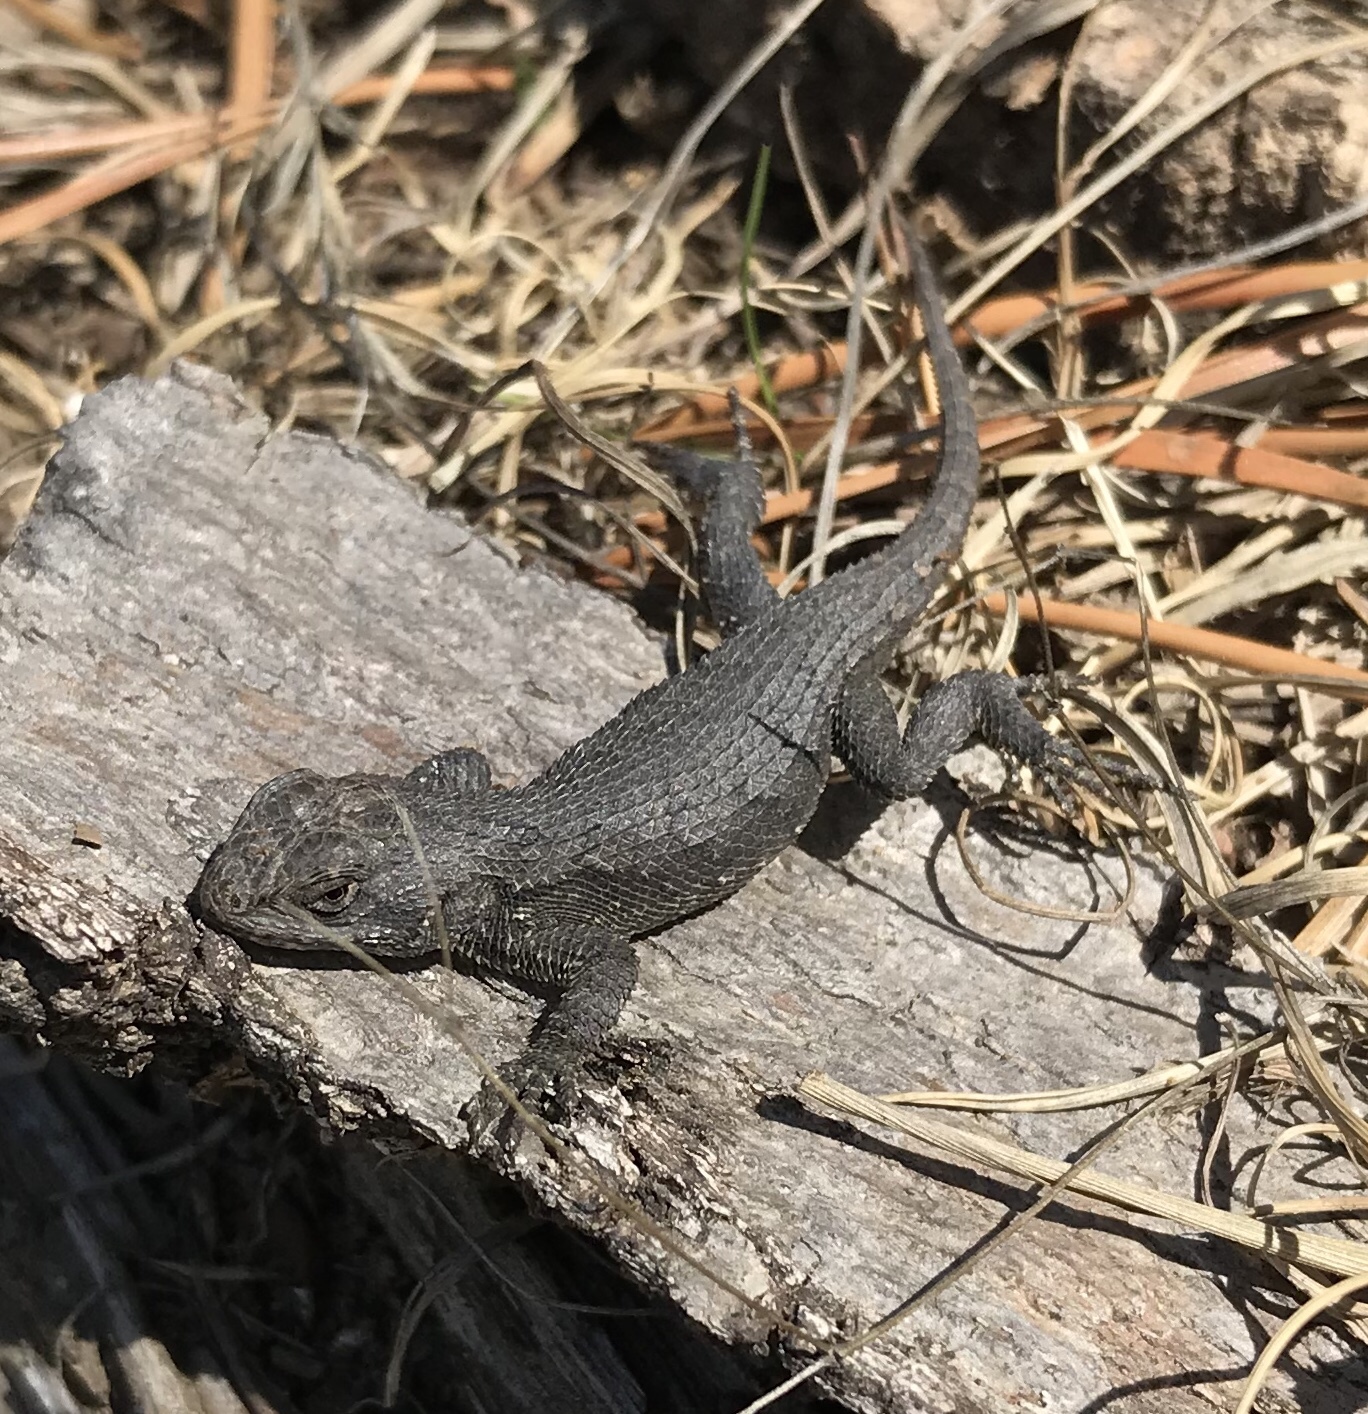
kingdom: Animalia
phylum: Chordata
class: Squamata
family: Phrynosomatidae
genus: Sceloporus
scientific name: Sceloporus undulatus
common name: Eastern fence lizard
